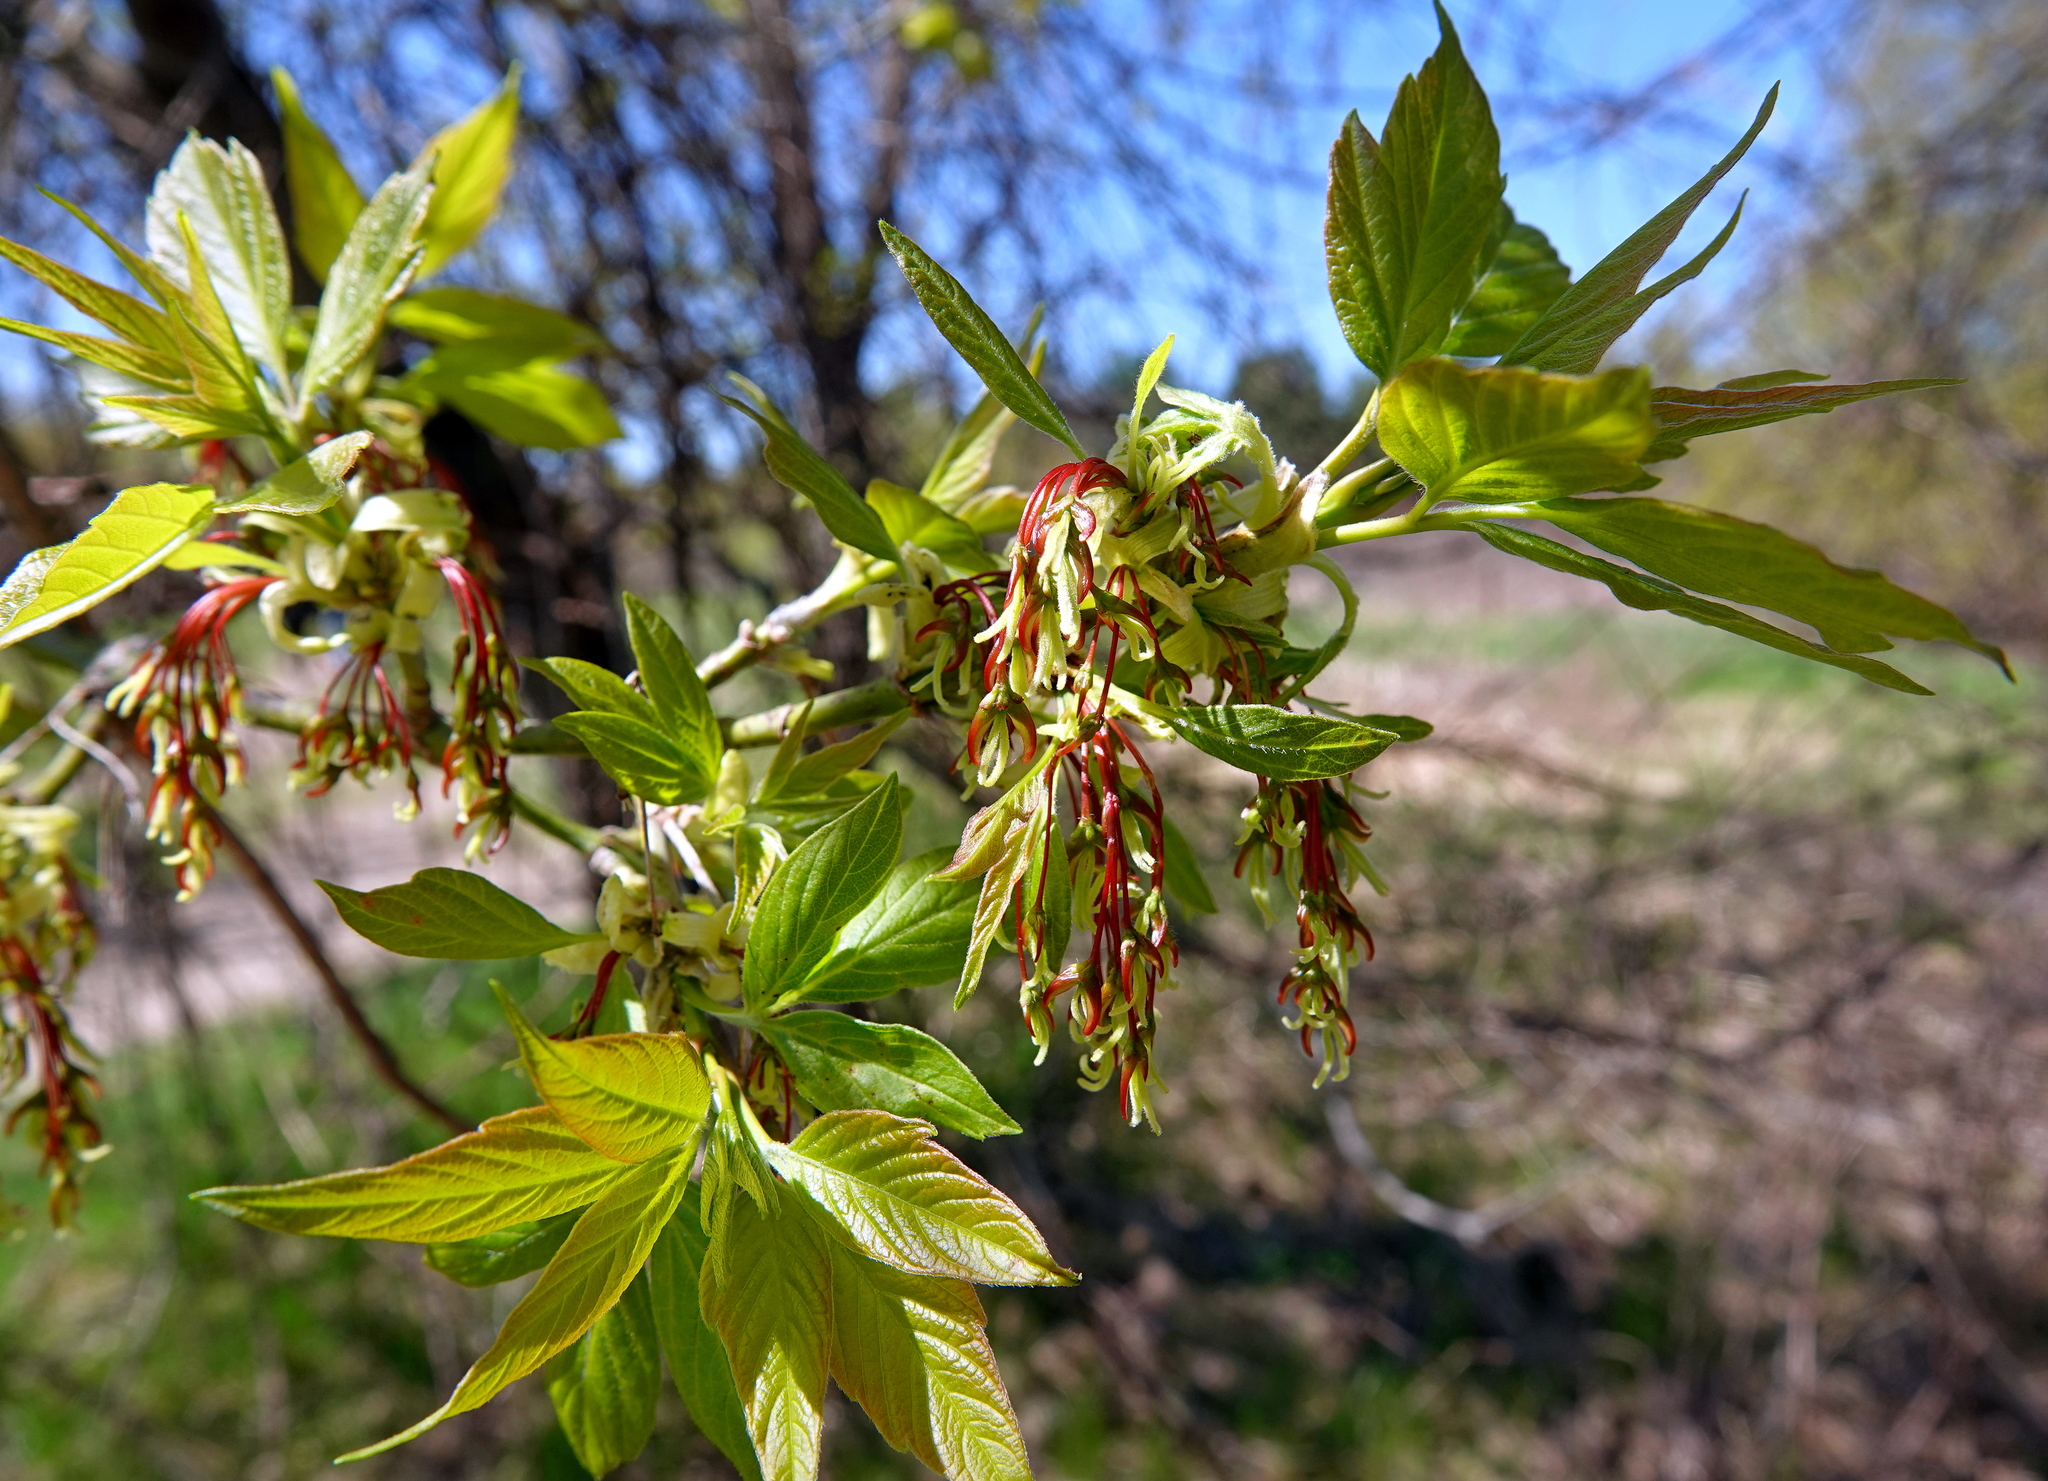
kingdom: Plantae
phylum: Tracheophyta
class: Magnoliopsida
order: Sapindales
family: Sapindaceae
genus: Acer
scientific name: Acer negundo
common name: Ashleaf maple
